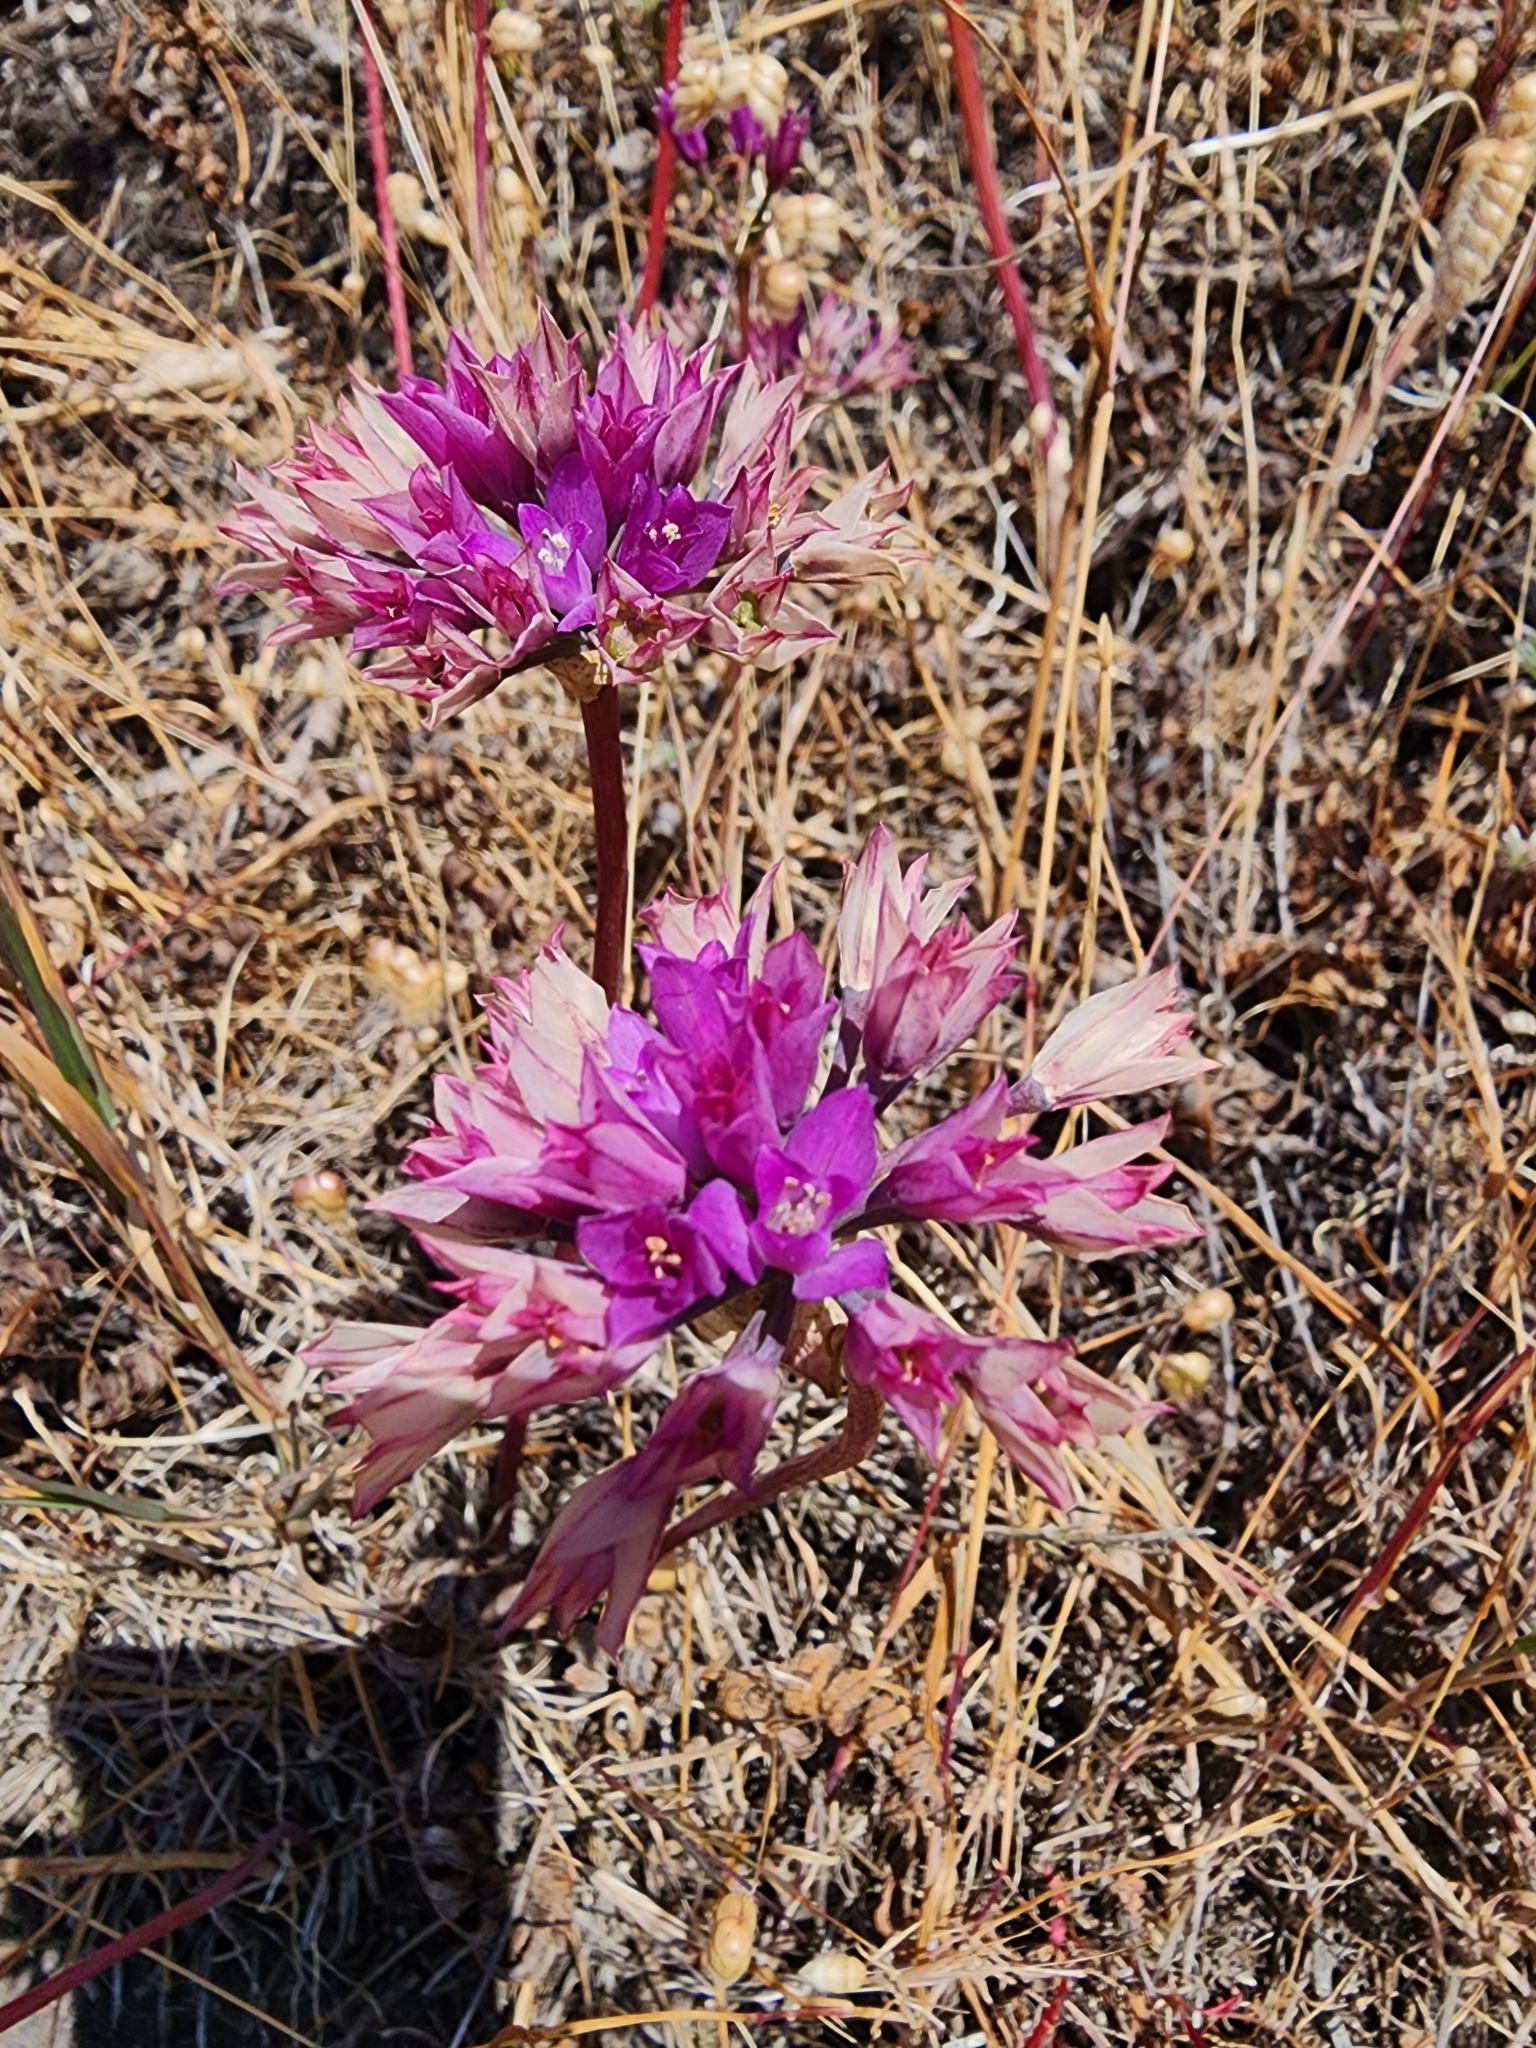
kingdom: Plantae
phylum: Tracheophyta
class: Liliopsida
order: Asparagales
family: Amaryllidaceae
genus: Allium
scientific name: Allium dichlamydeum
